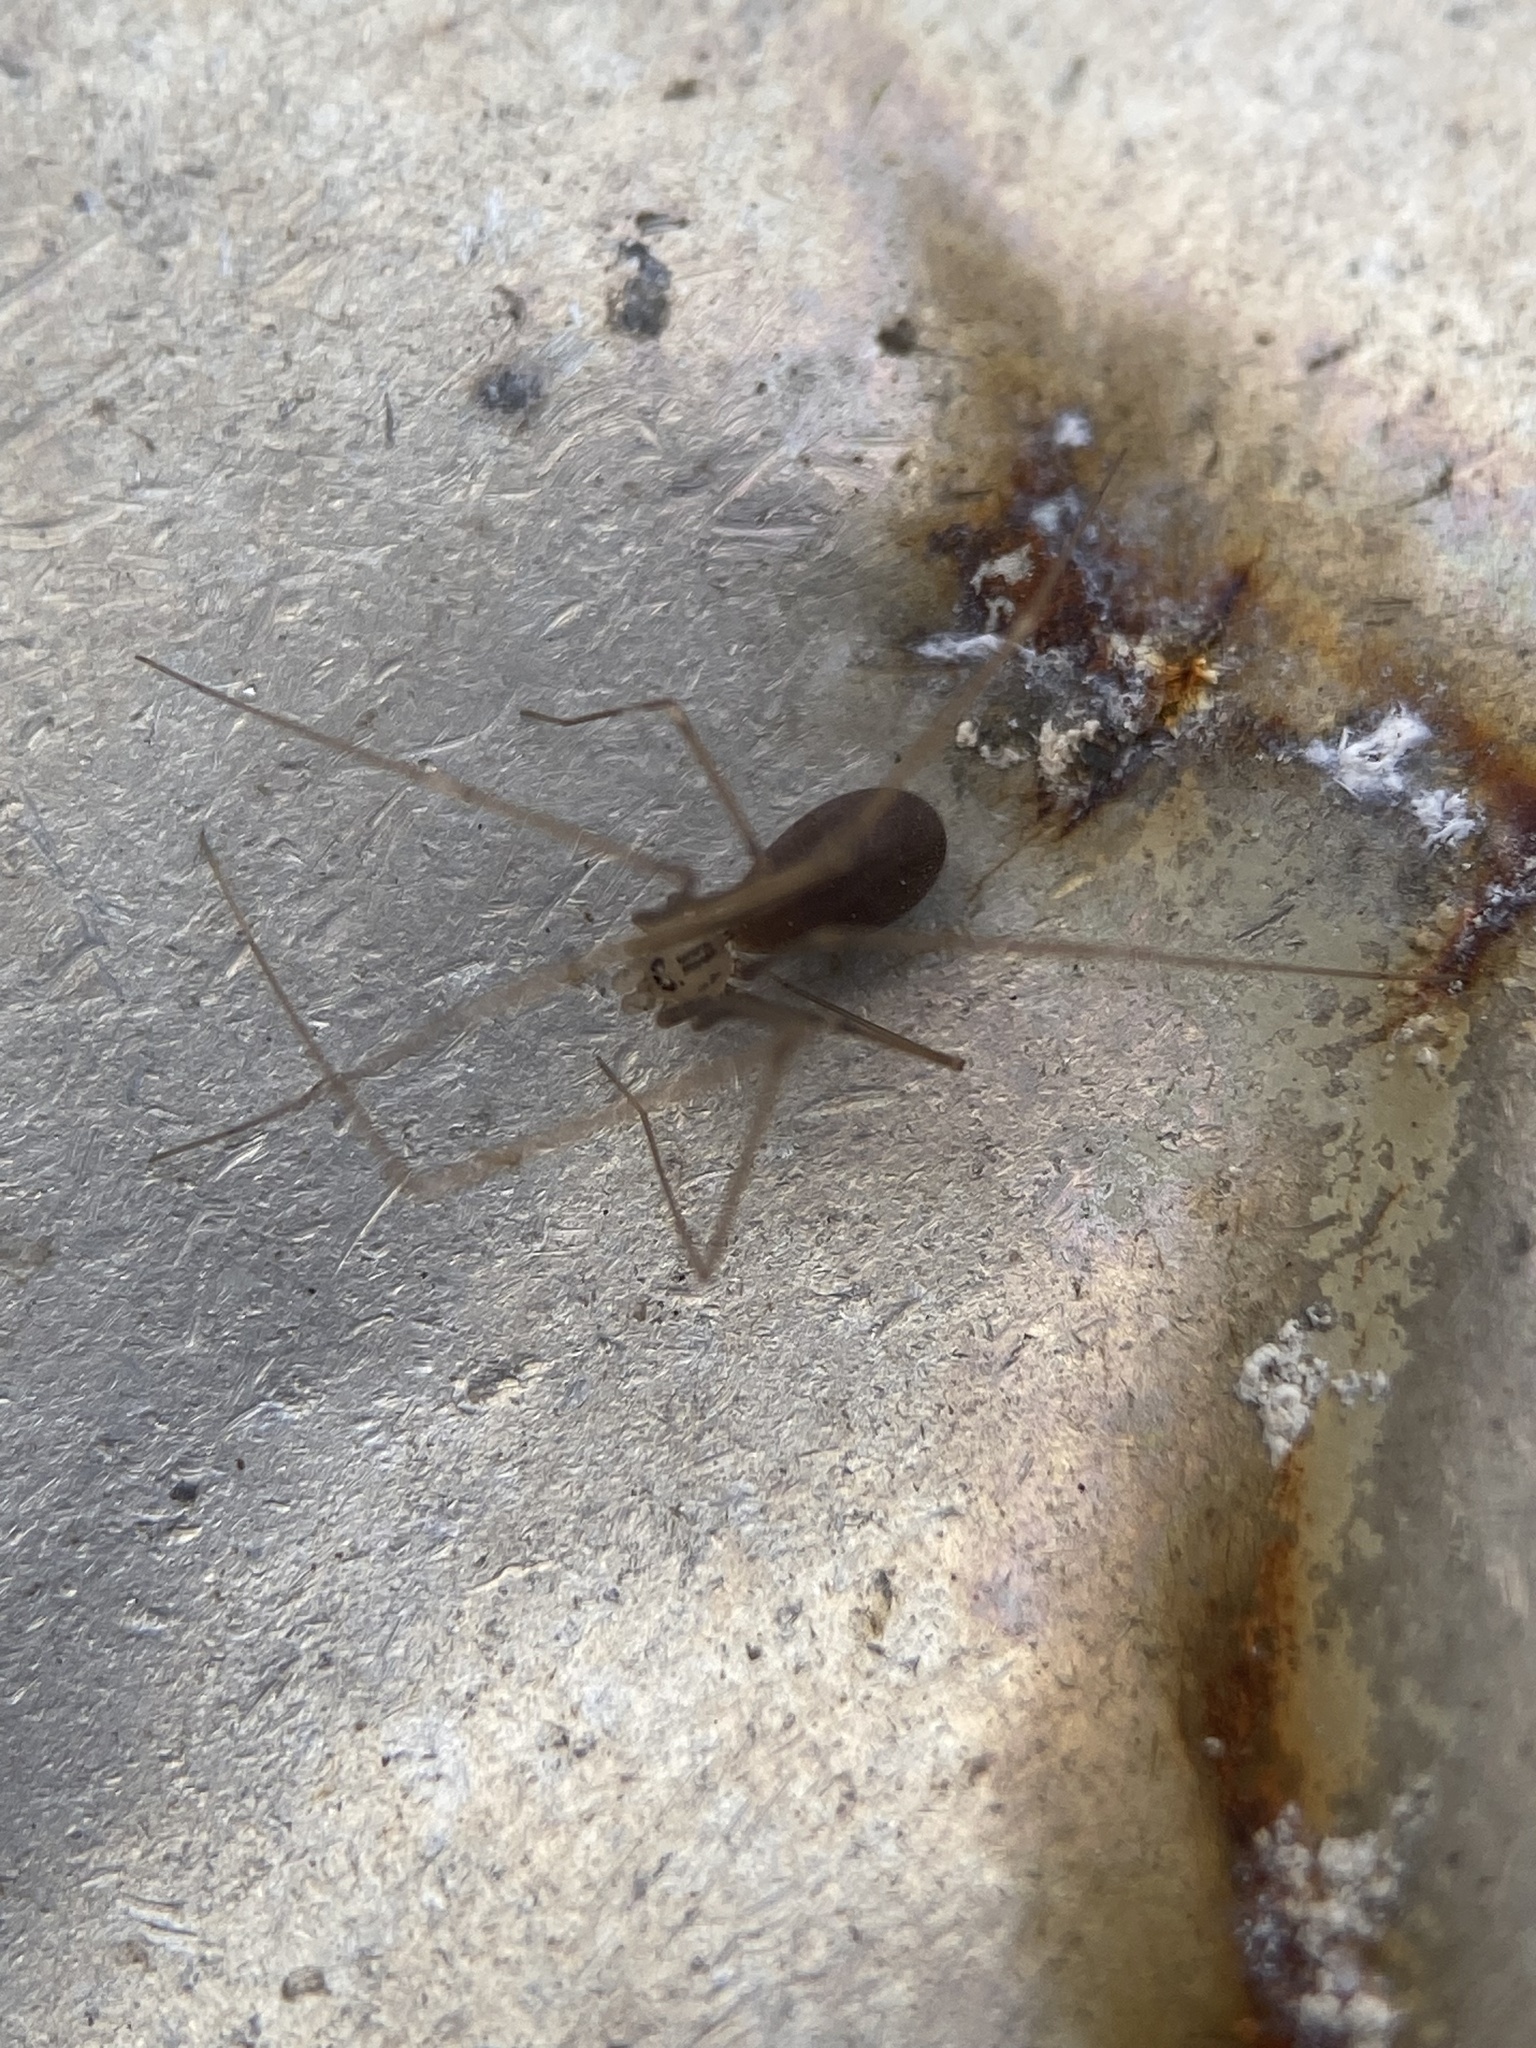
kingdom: Animalia
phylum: Arthropoda
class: Arachnida
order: Araneae
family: Pholcidae
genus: Pholcus
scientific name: Pholcus opilionoides
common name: Daddylongleg spider
